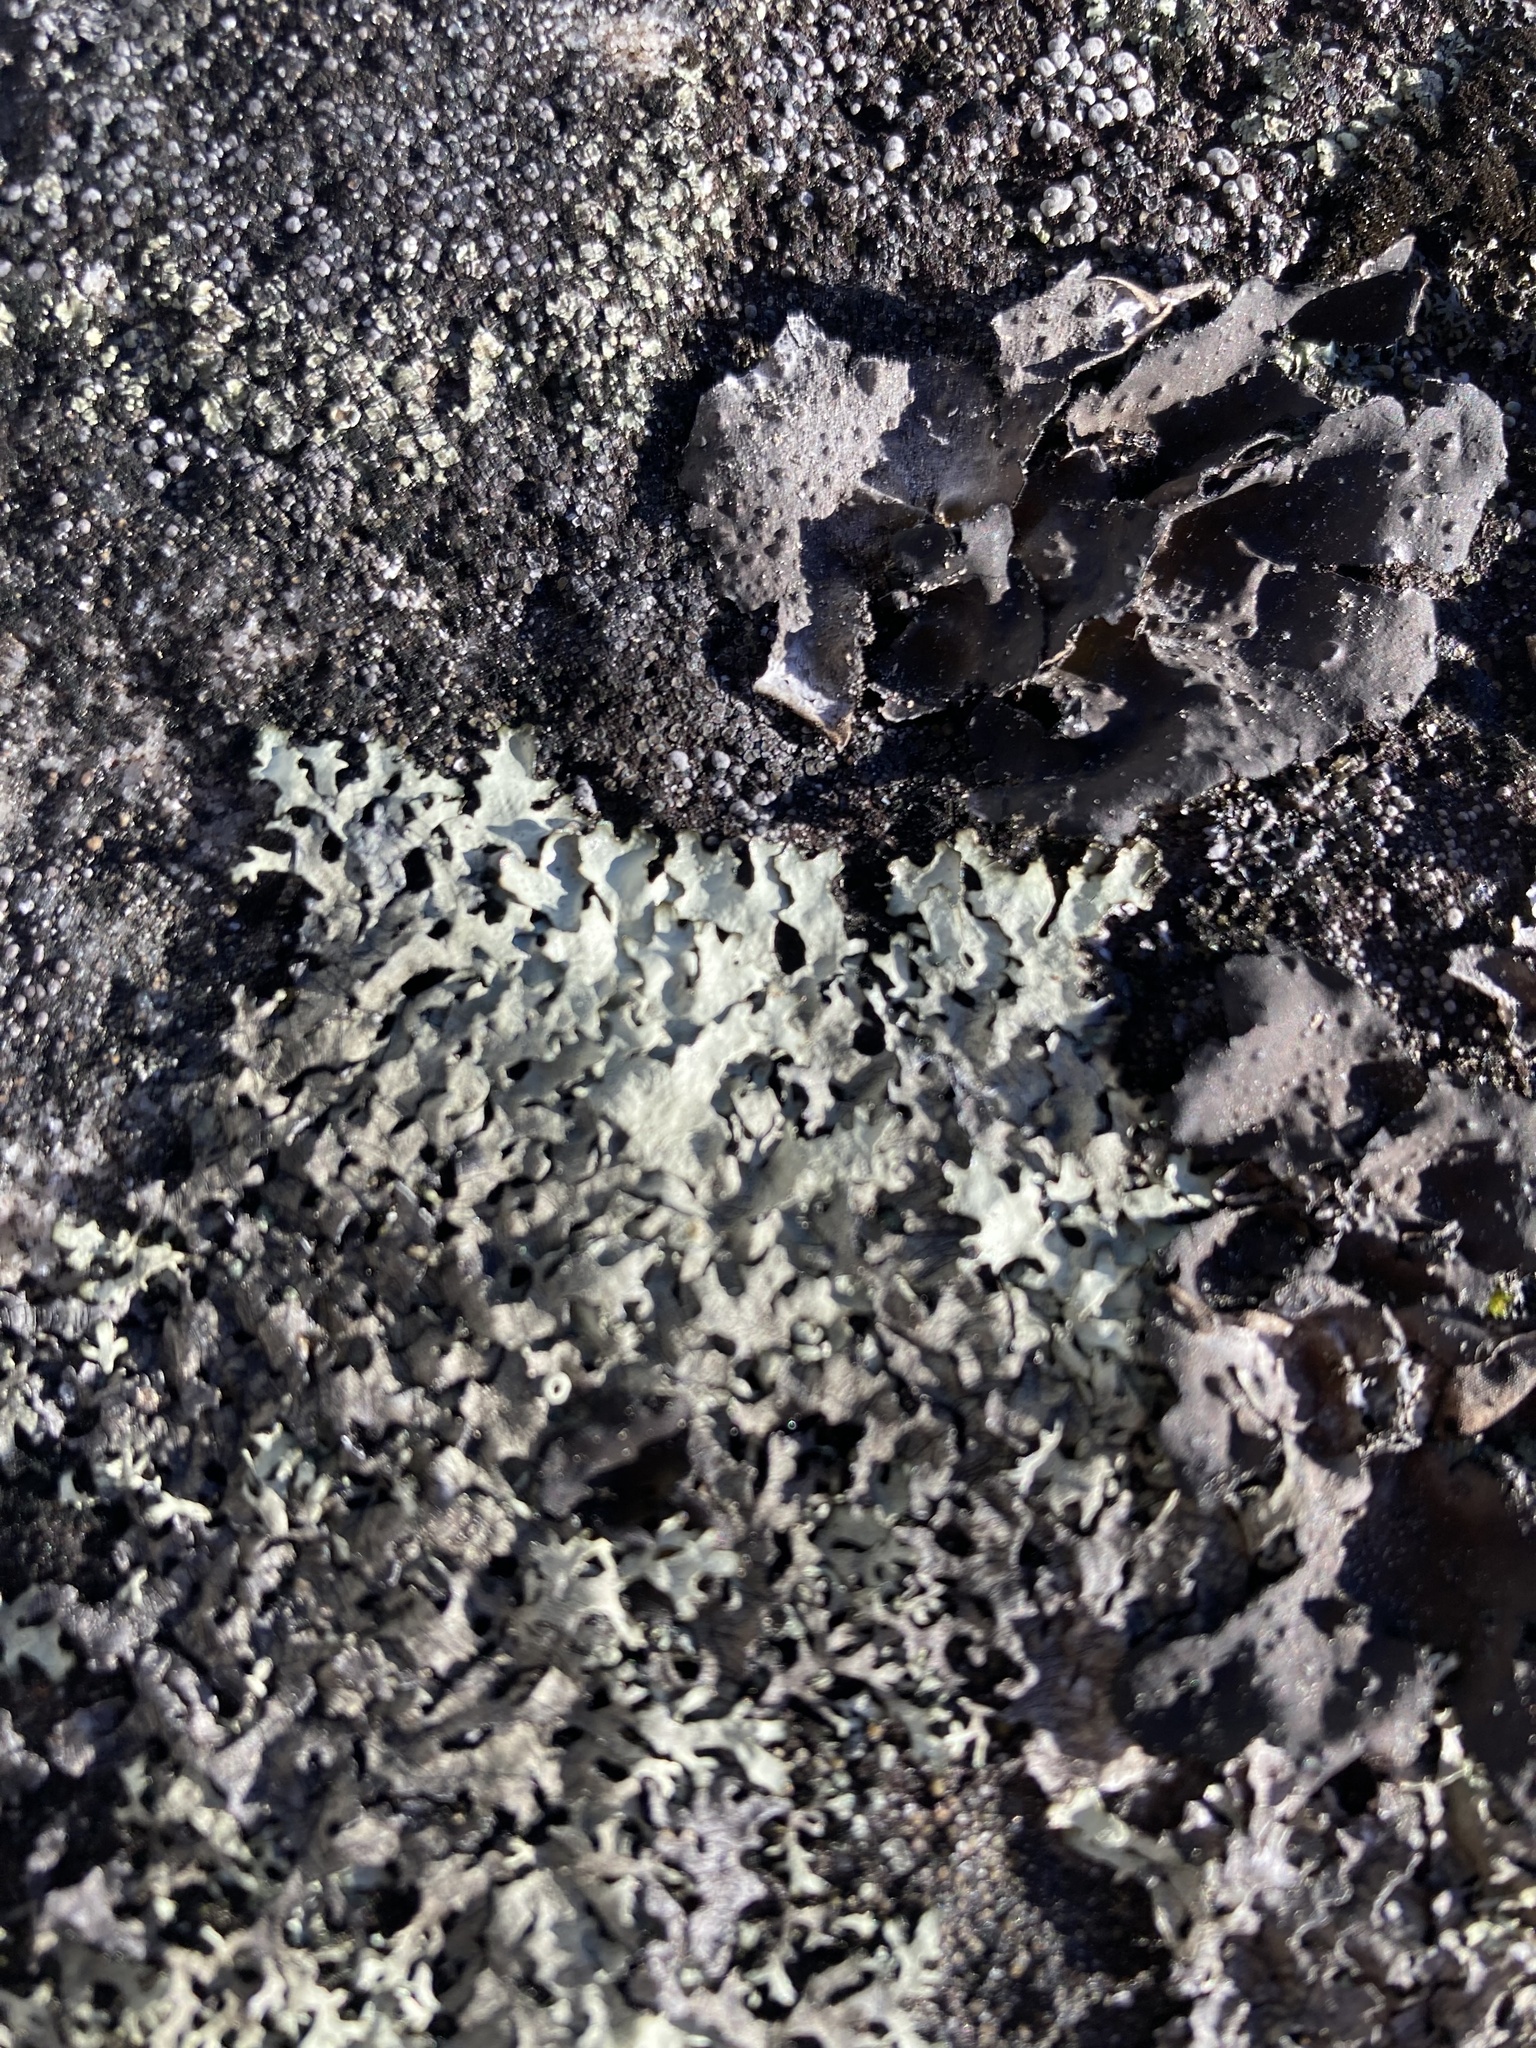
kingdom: Fungi
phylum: Ascomycota
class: Lecanoromycetes
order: Lecanorales
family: Parmeliaceae
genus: Parmelia
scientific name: Parmelia saxatilis
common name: Salted shield lichen
